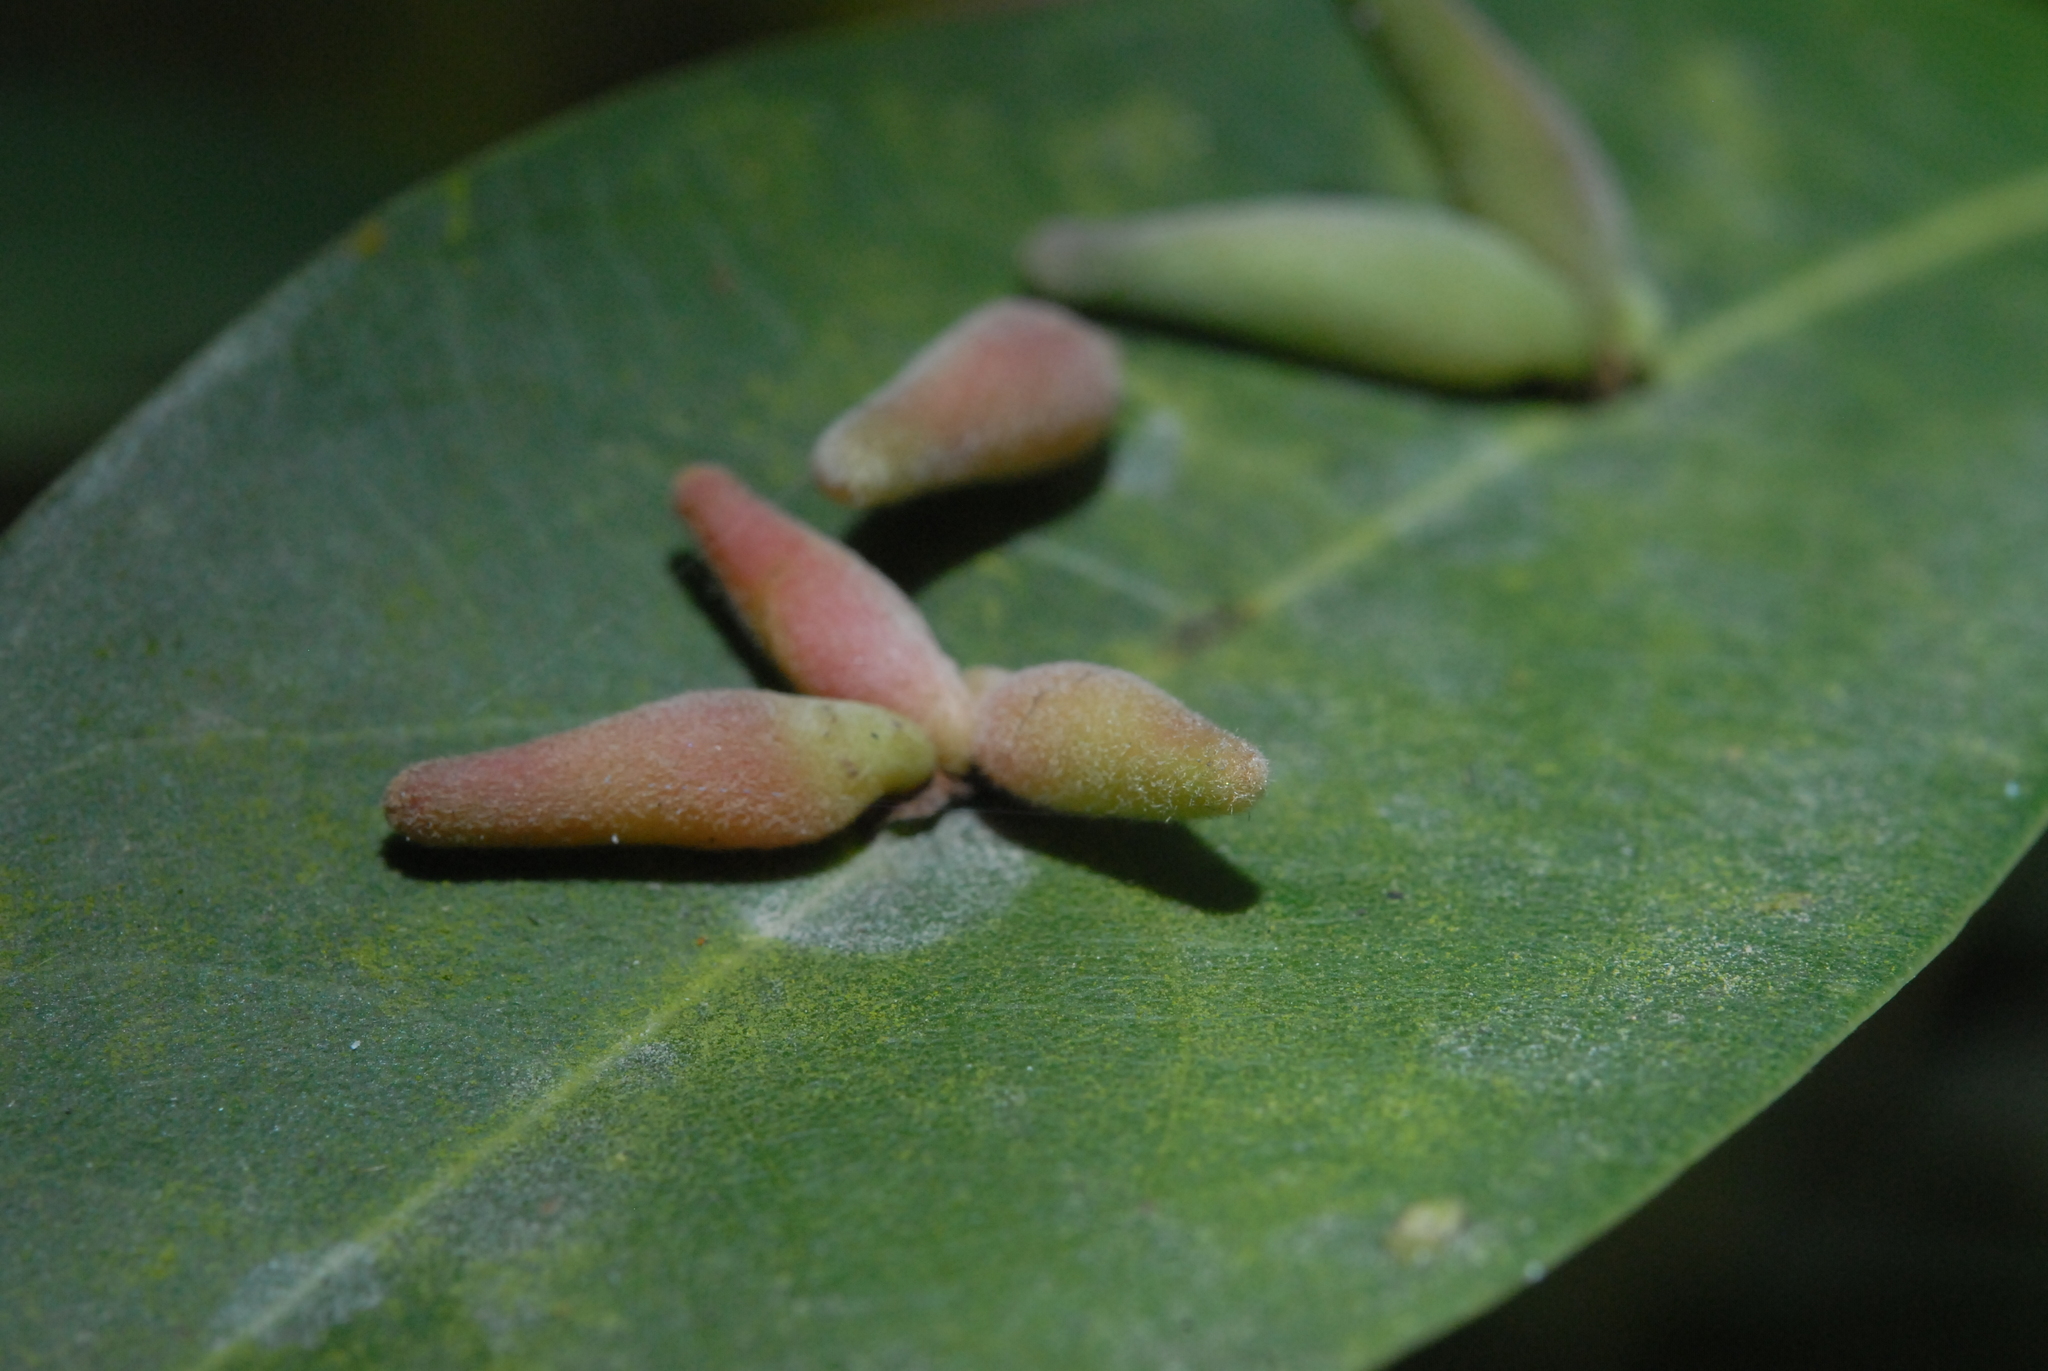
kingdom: Animalia
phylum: Arthropoda
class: Insecta
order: Diptera
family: Cecidomyiidae
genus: Daphnephila
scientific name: Daphnephila taiwanensis
